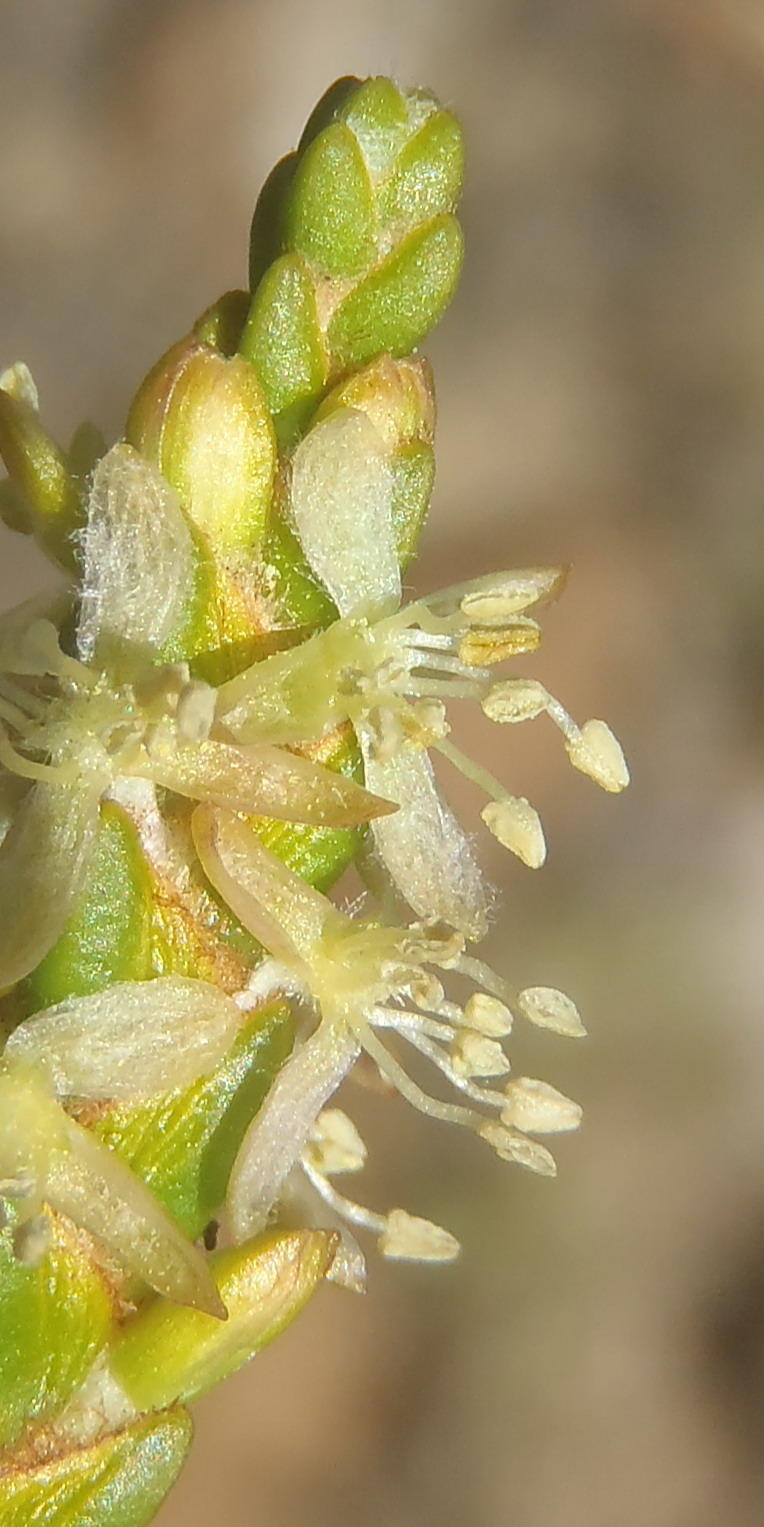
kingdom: Plantae
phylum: Tracheophyta
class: Magnoliopsida
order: Malvales
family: Thymelaeaceae
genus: Passerina
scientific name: Passerina comosa
